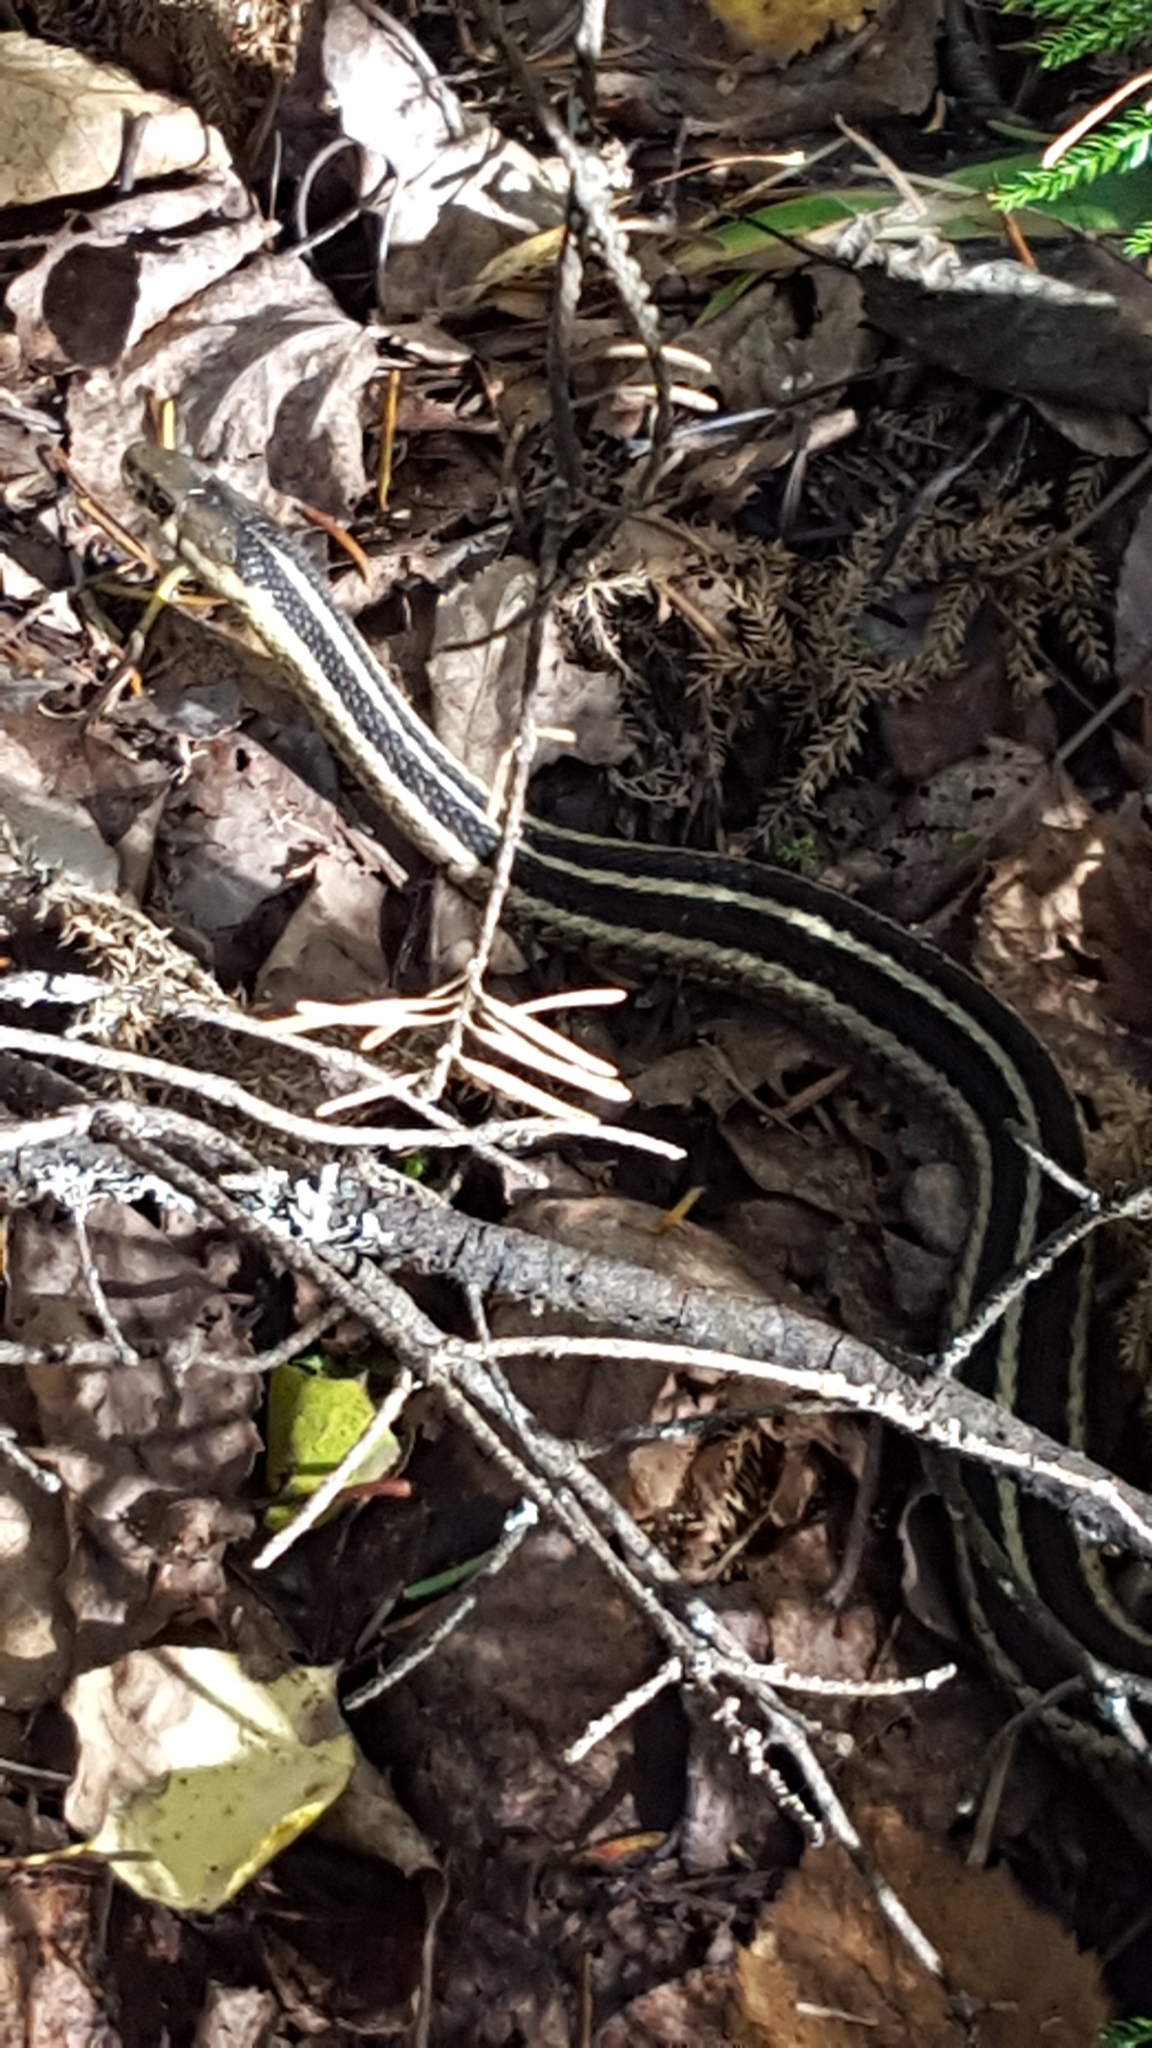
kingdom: Animalia
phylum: Chordata
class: Squamata
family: Colubridae
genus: Thamnophis
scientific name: Thamnophis sirtalis
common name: Common garter snake
